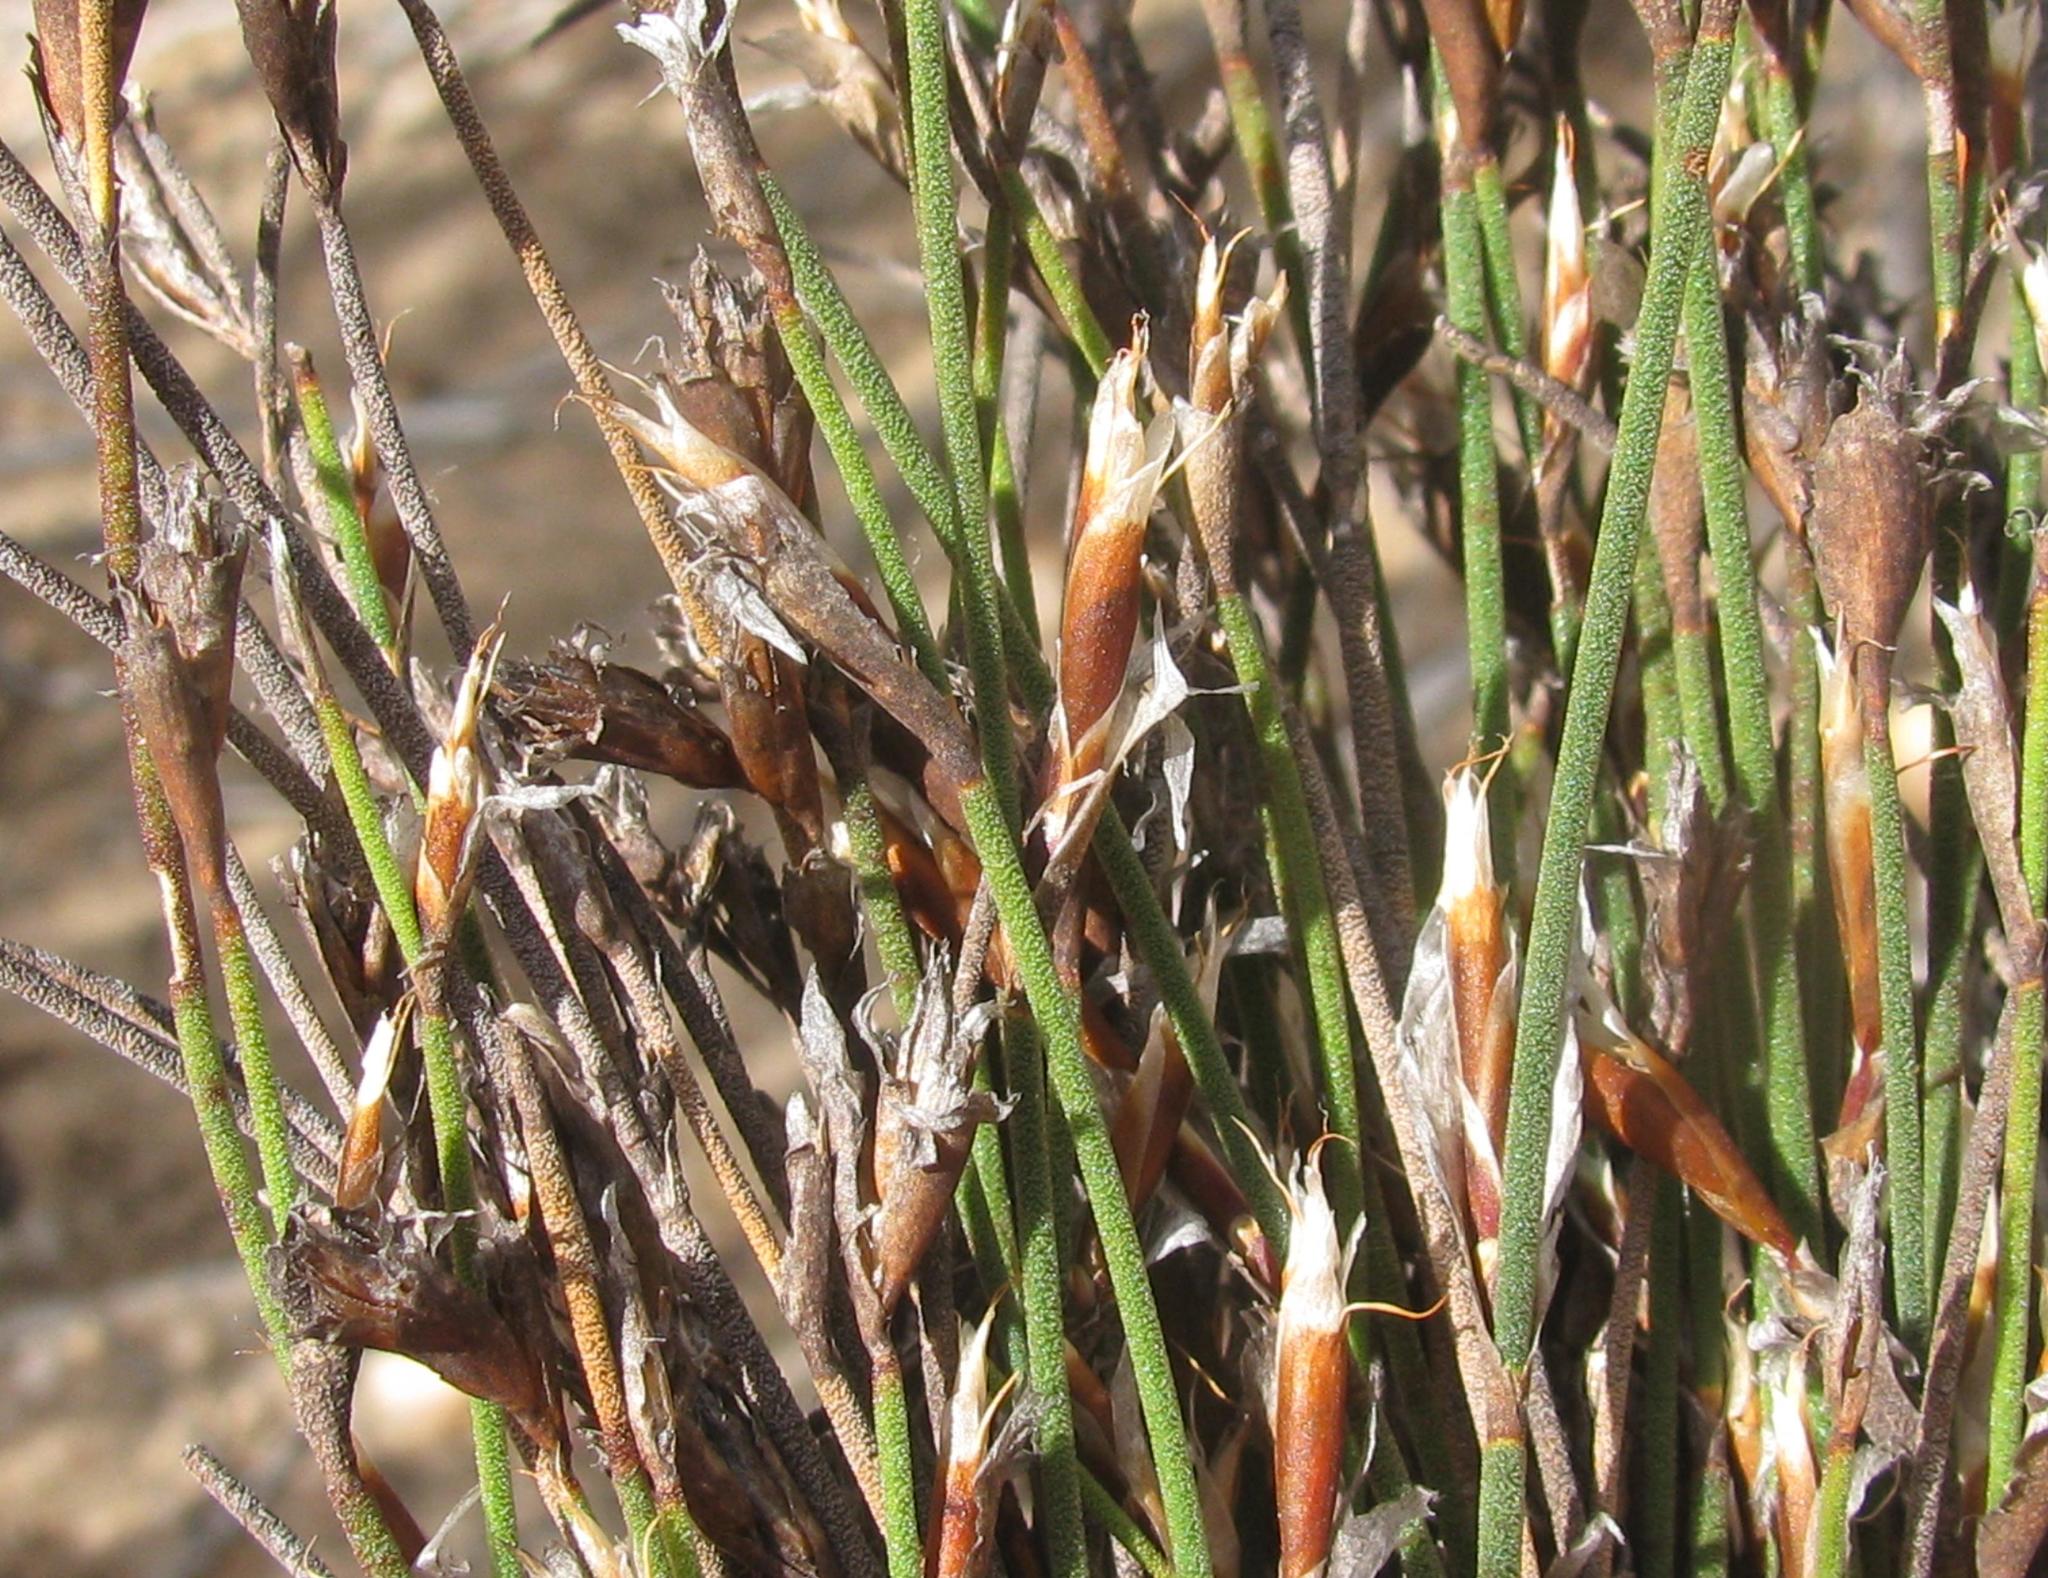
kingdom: Plantae
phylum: Tracheophyta
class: Liliopsida
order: Poales
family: Restionaceae
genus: Restio
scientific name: Restio longiaristatus
